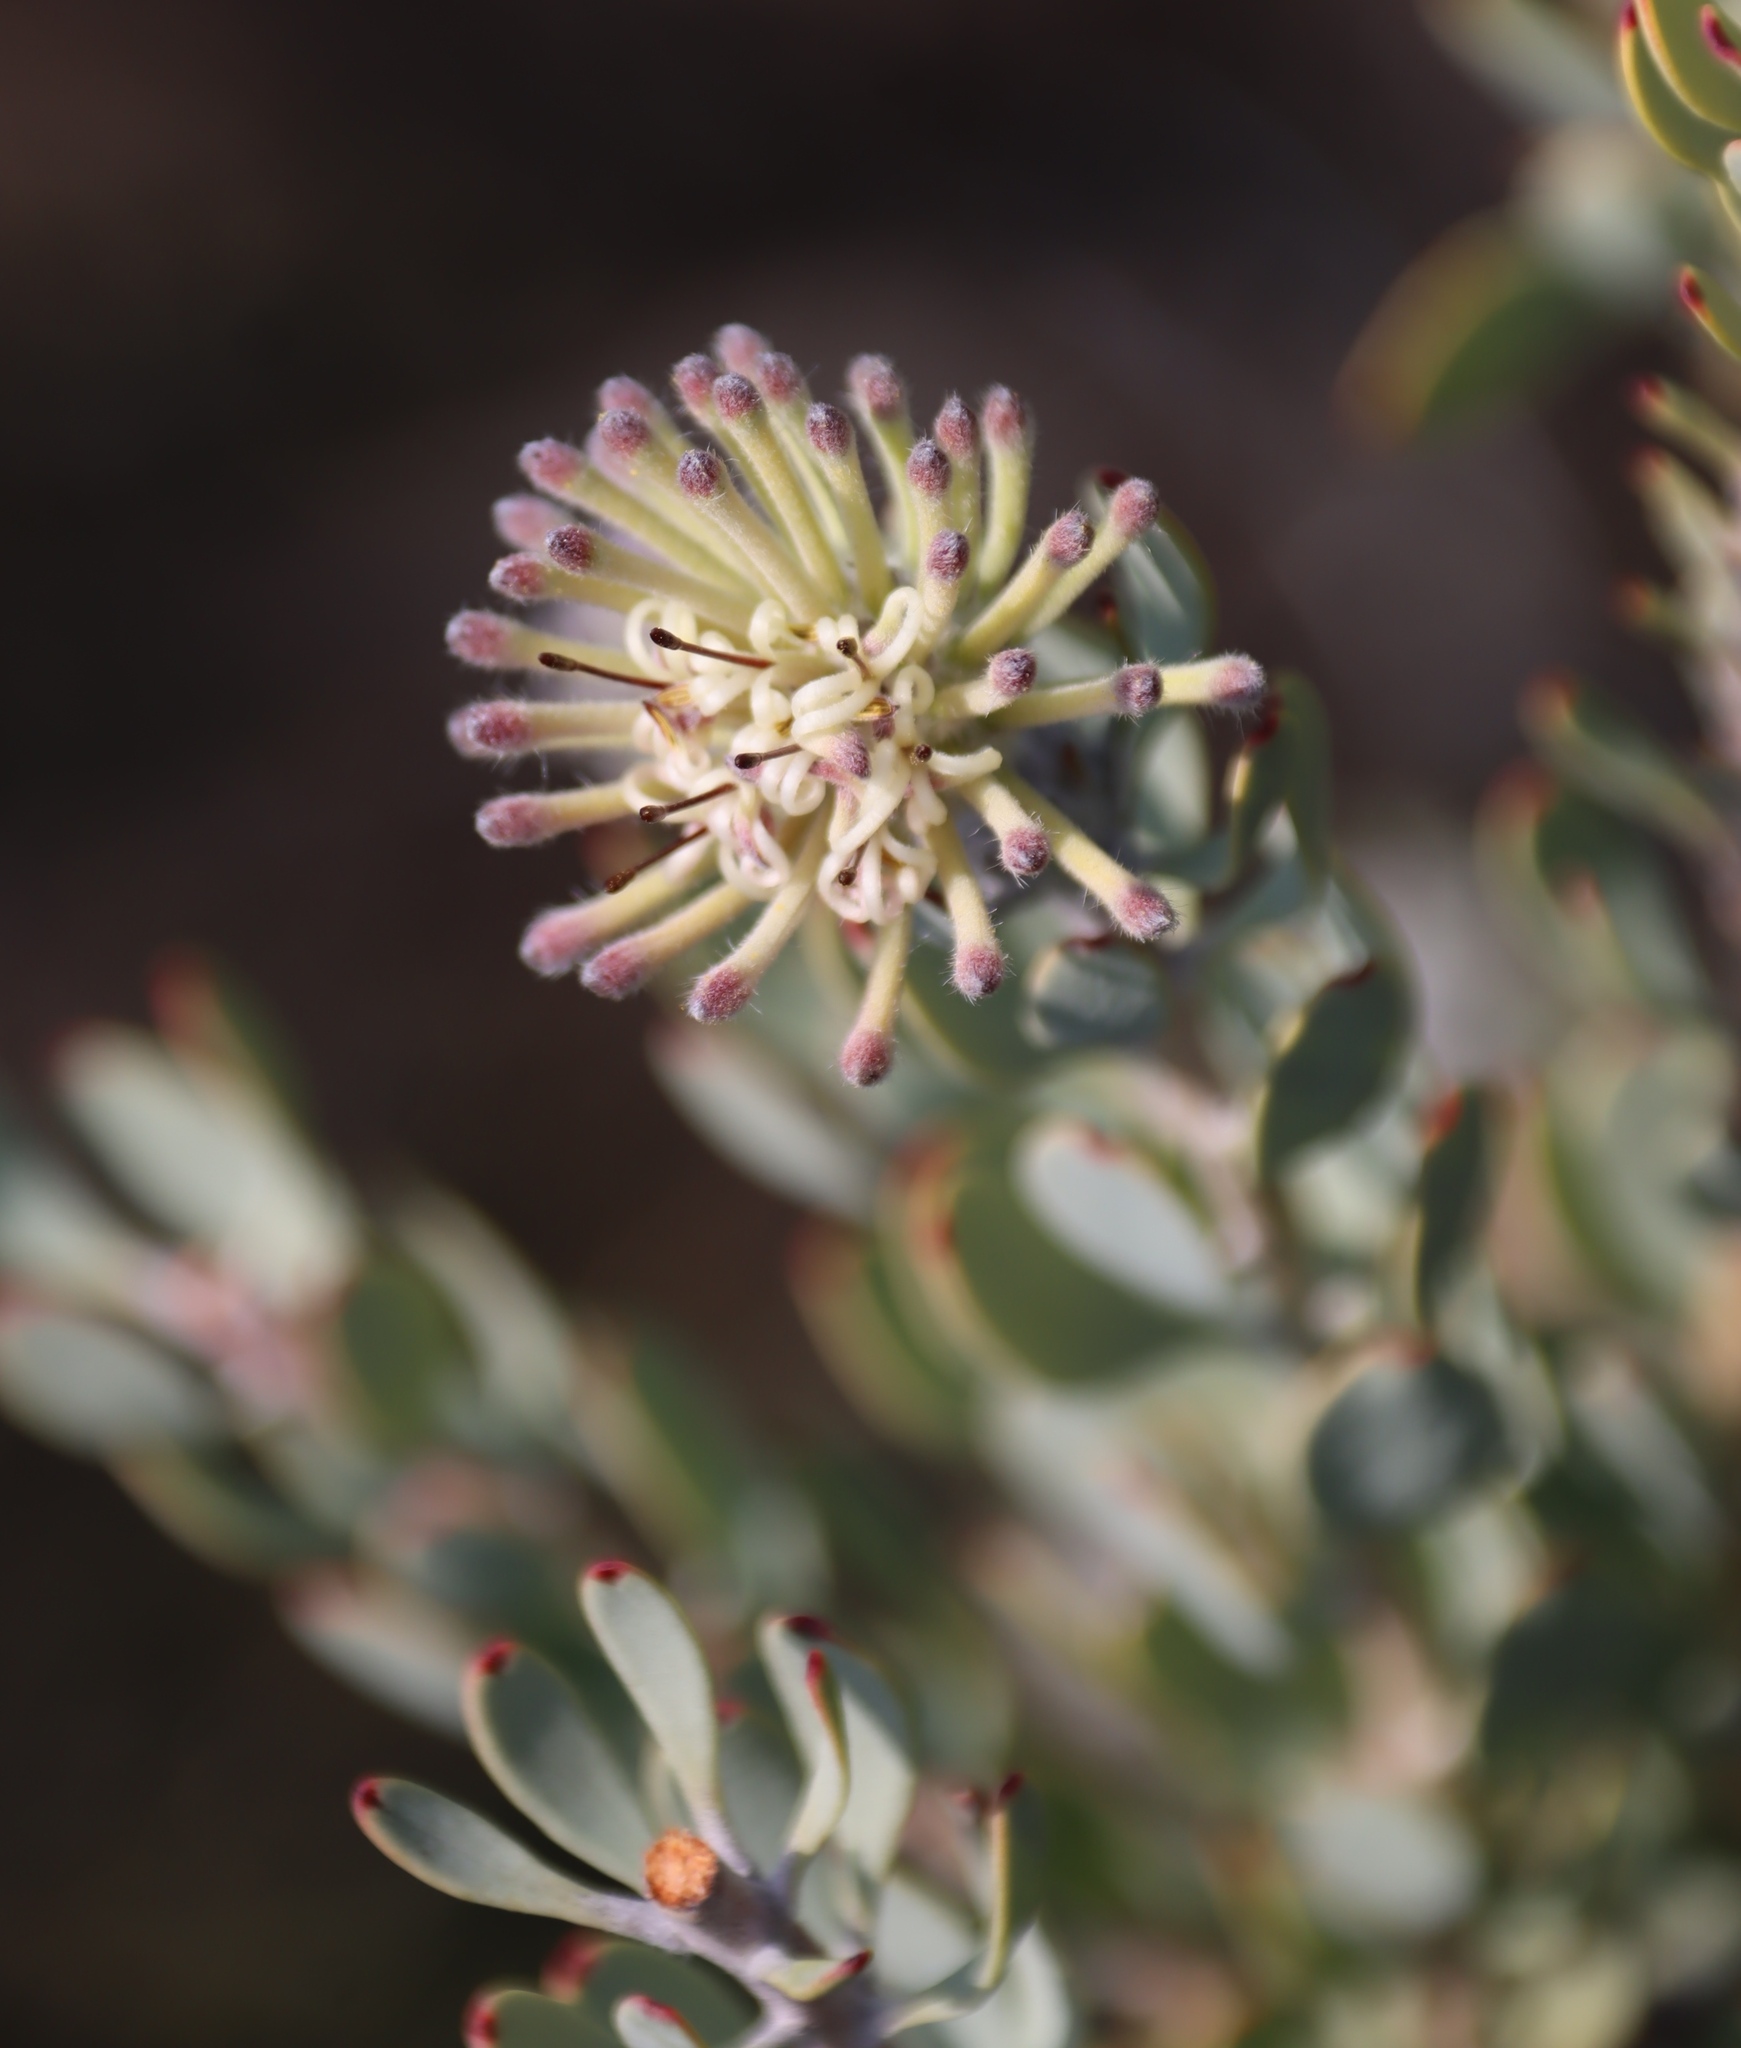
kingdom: Plantae
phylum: Tracheophyta
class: Magnoliopsida
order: Proteales
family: Proteaceae
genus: Vexatorella
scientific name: Vexatorella alpina
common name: Kamiesberg vexator
